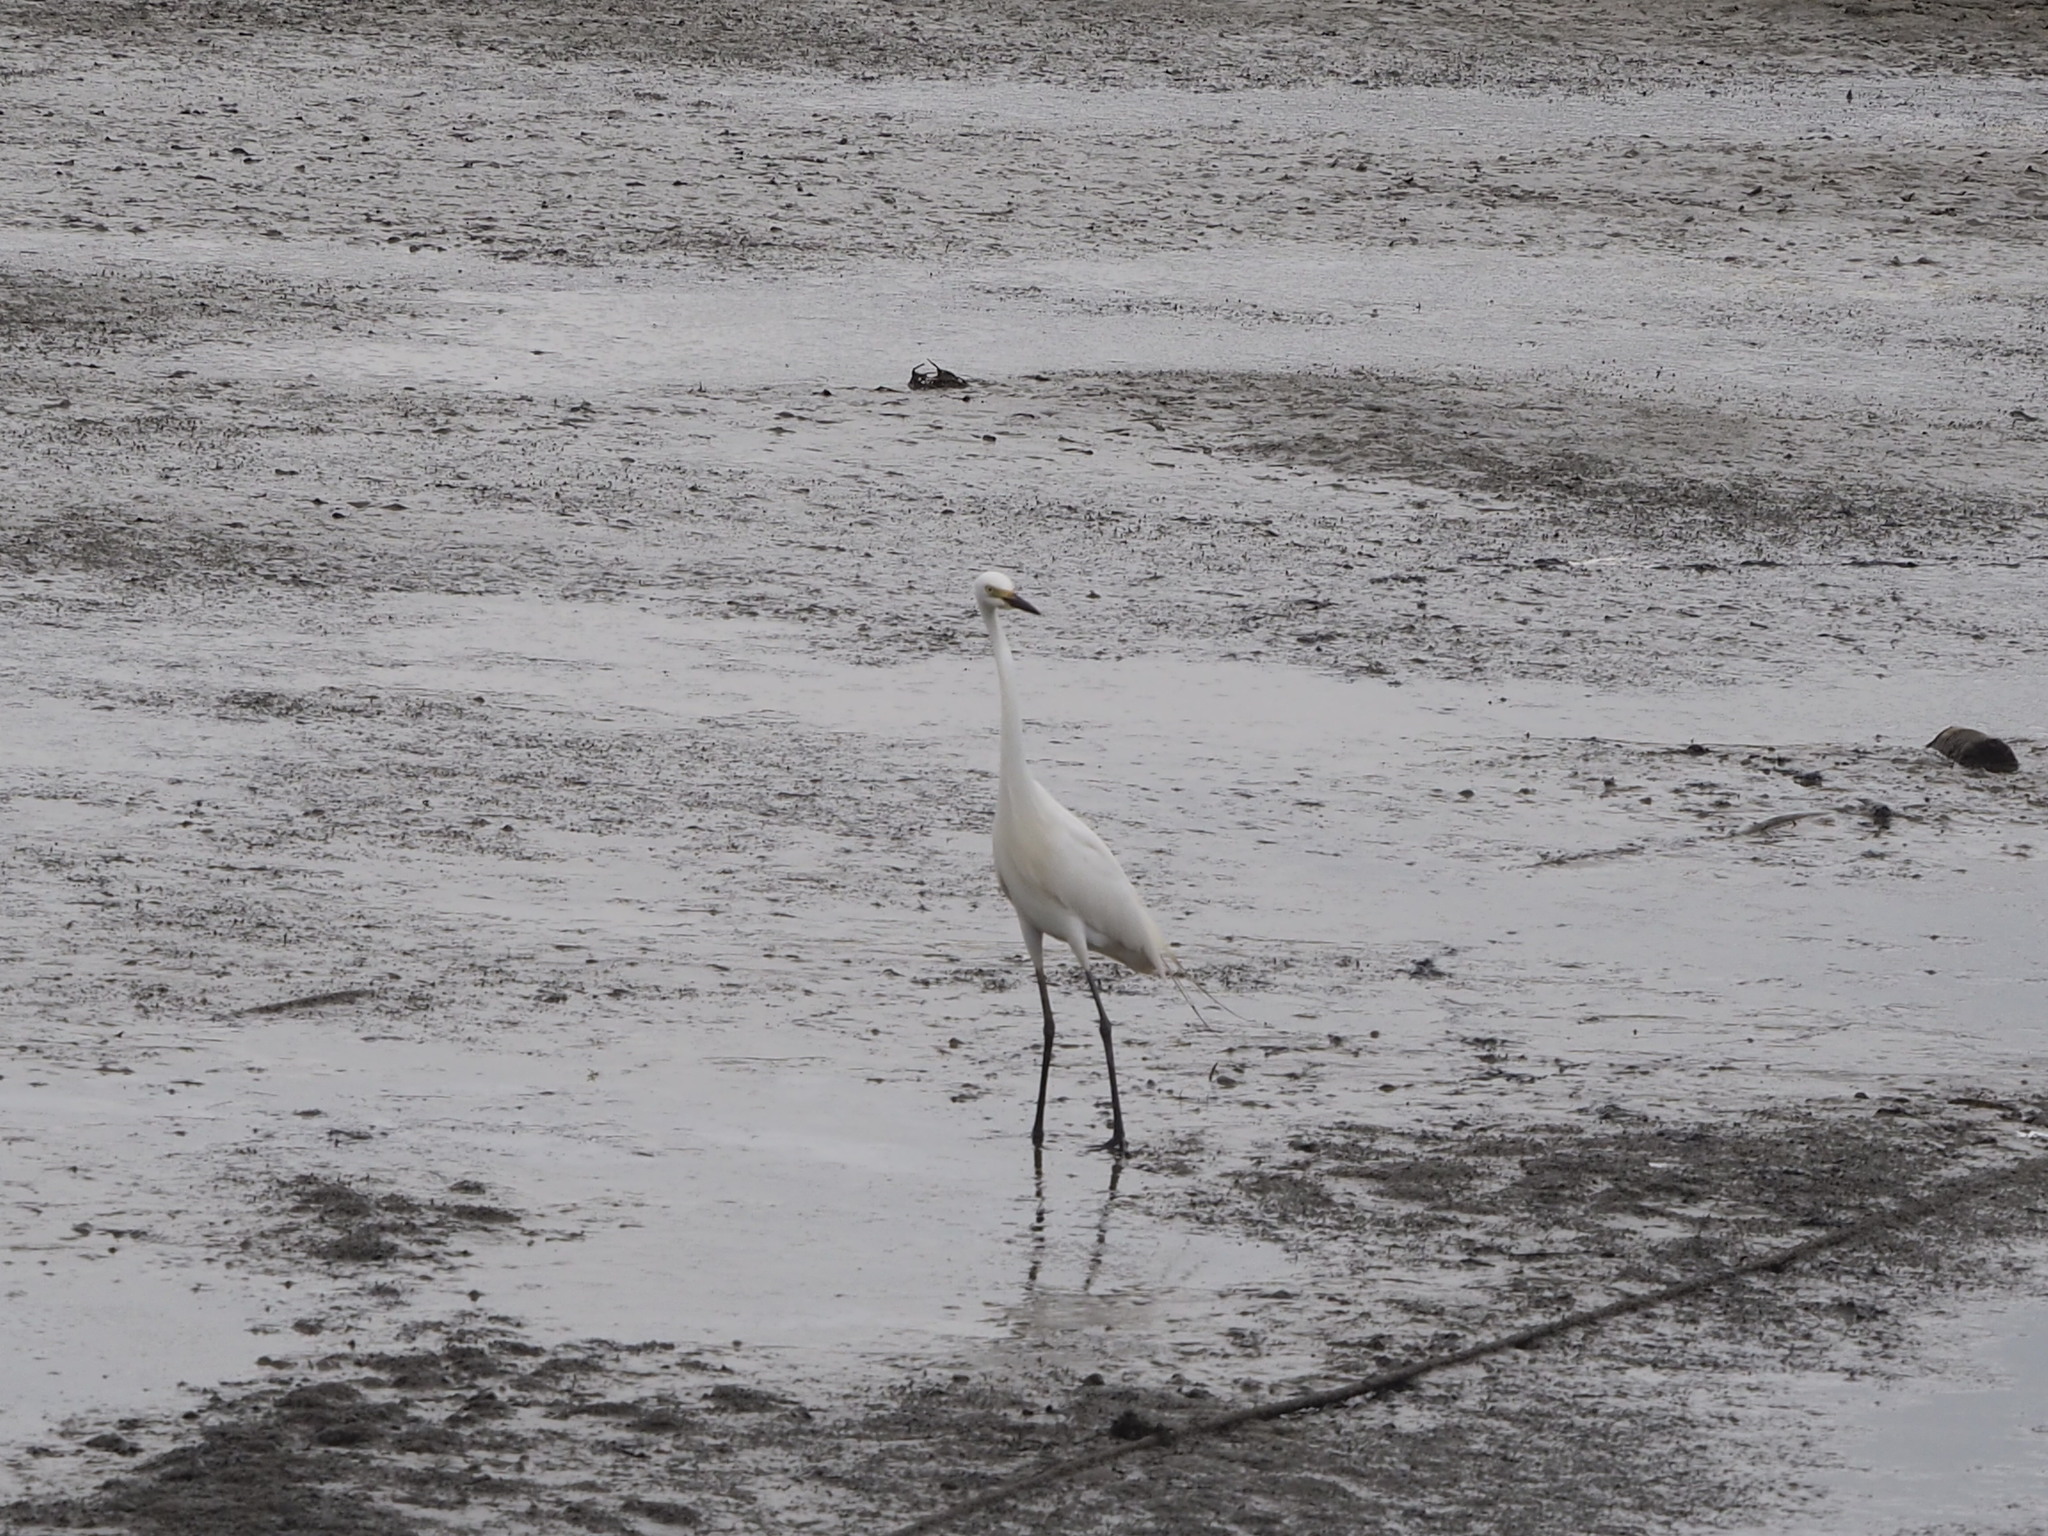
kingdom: Animalia
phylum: Chordata
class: Aves
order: Pelecaniformes
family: Ardeidae
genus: Egretta
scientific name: Egretta garzetta
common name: Little egret
